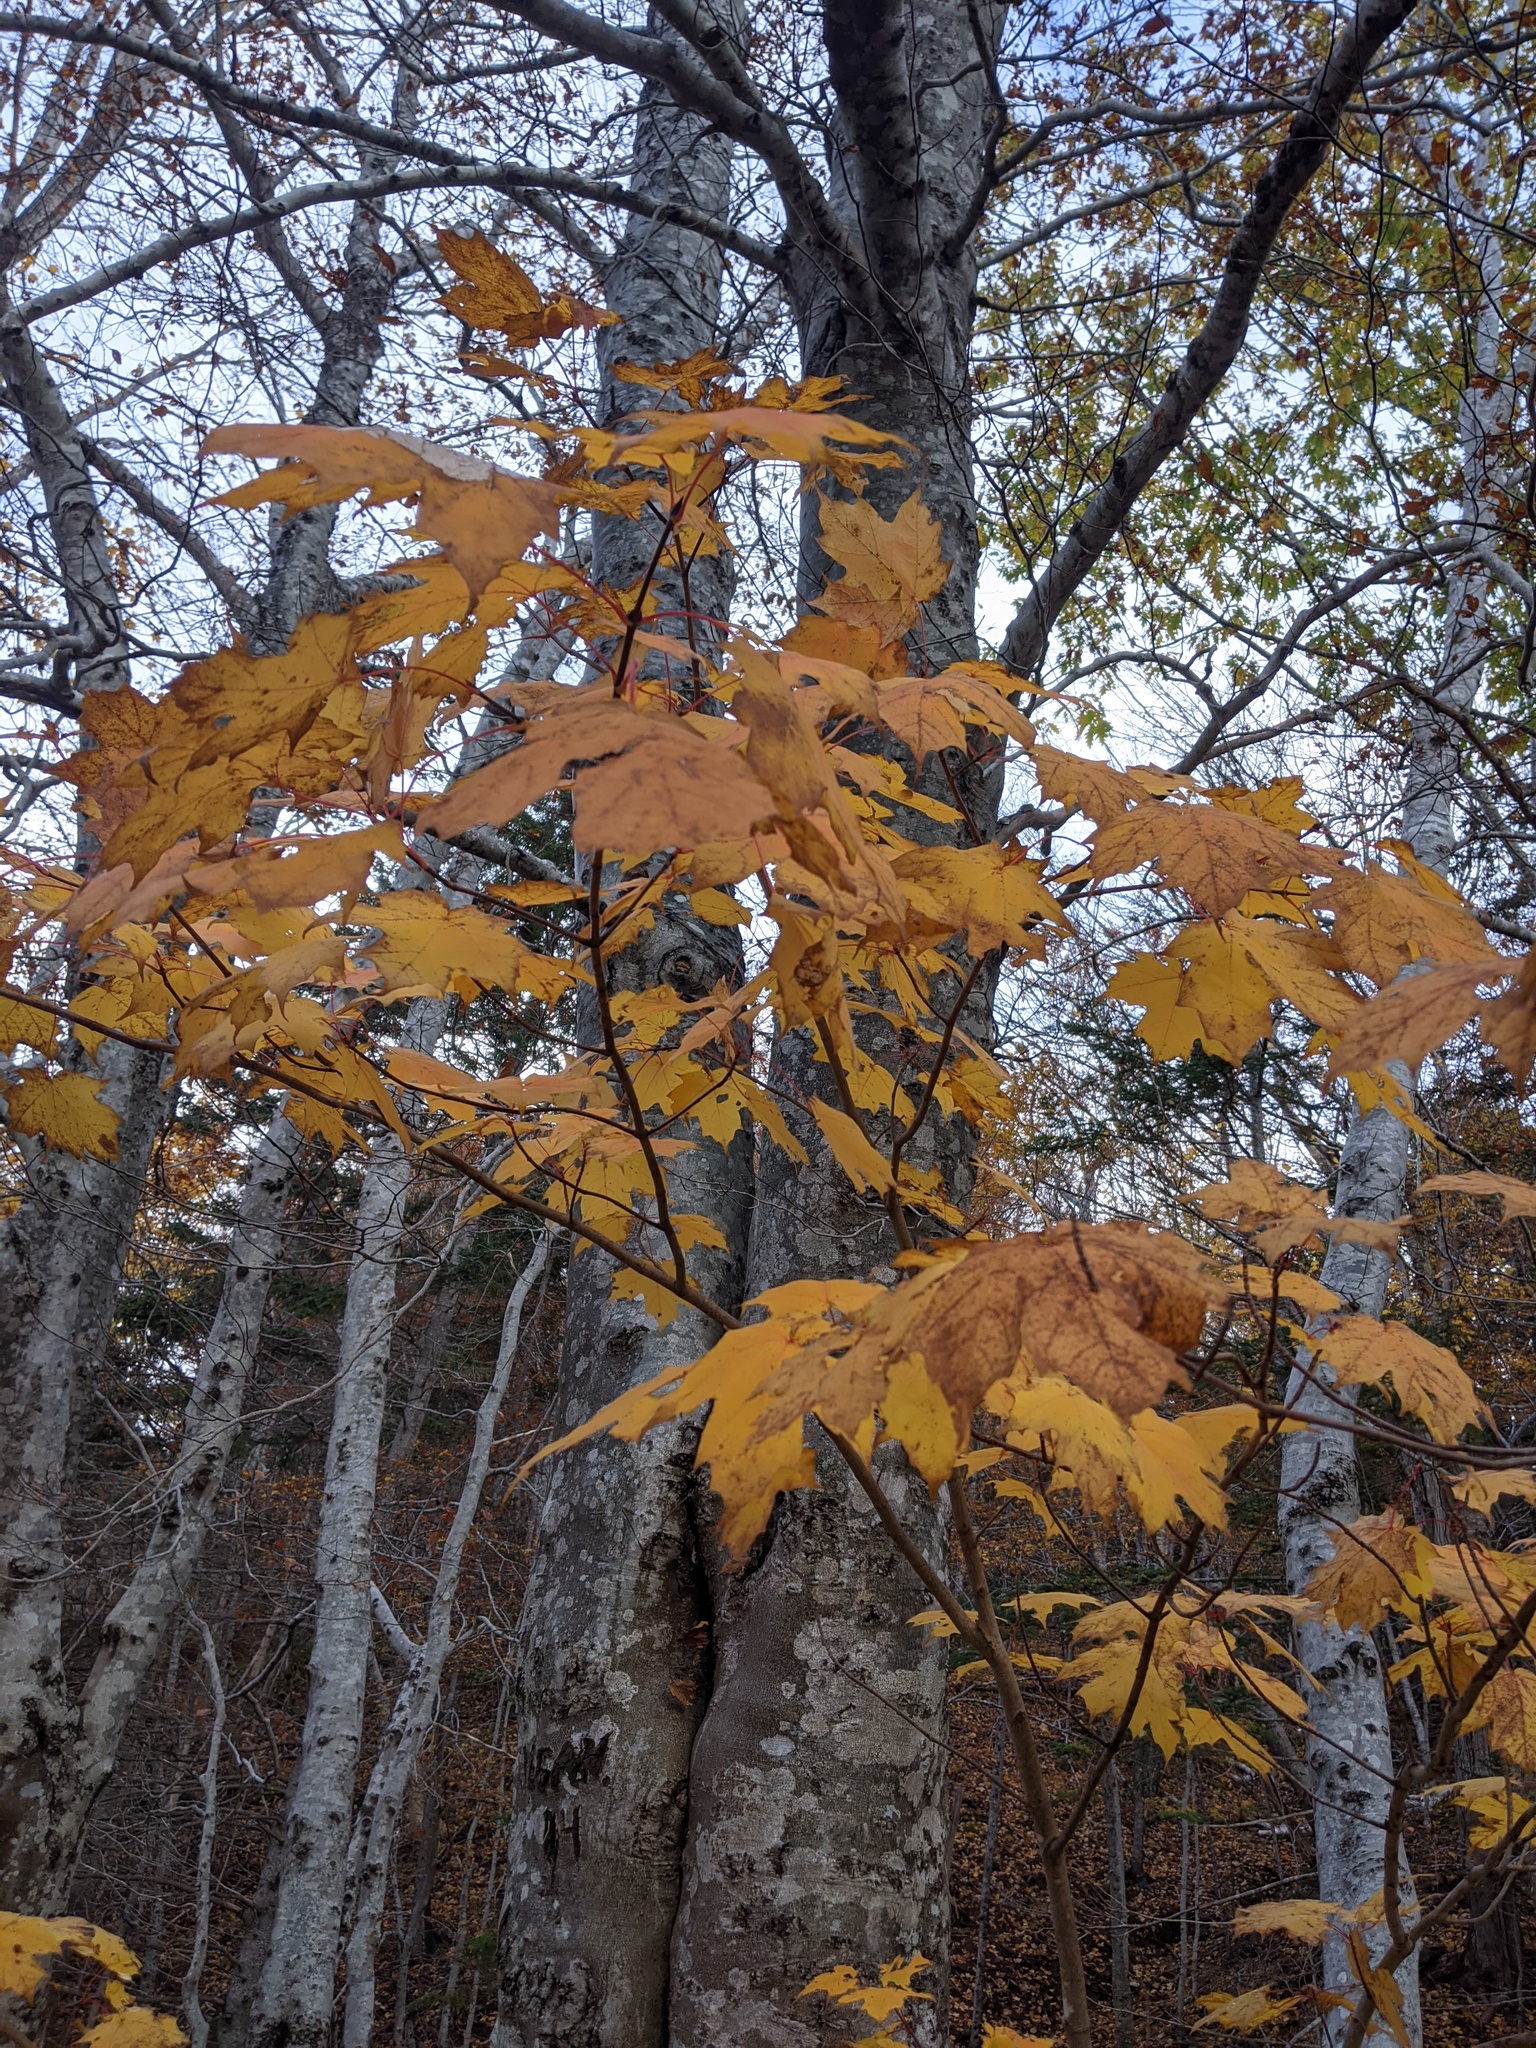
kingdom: Plantae
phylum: Tracheophyta
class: Magnoliopsida
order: Sapindales
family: Sapindaceae
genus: Acer
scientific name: Acer saccharum
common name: Sugar maple
